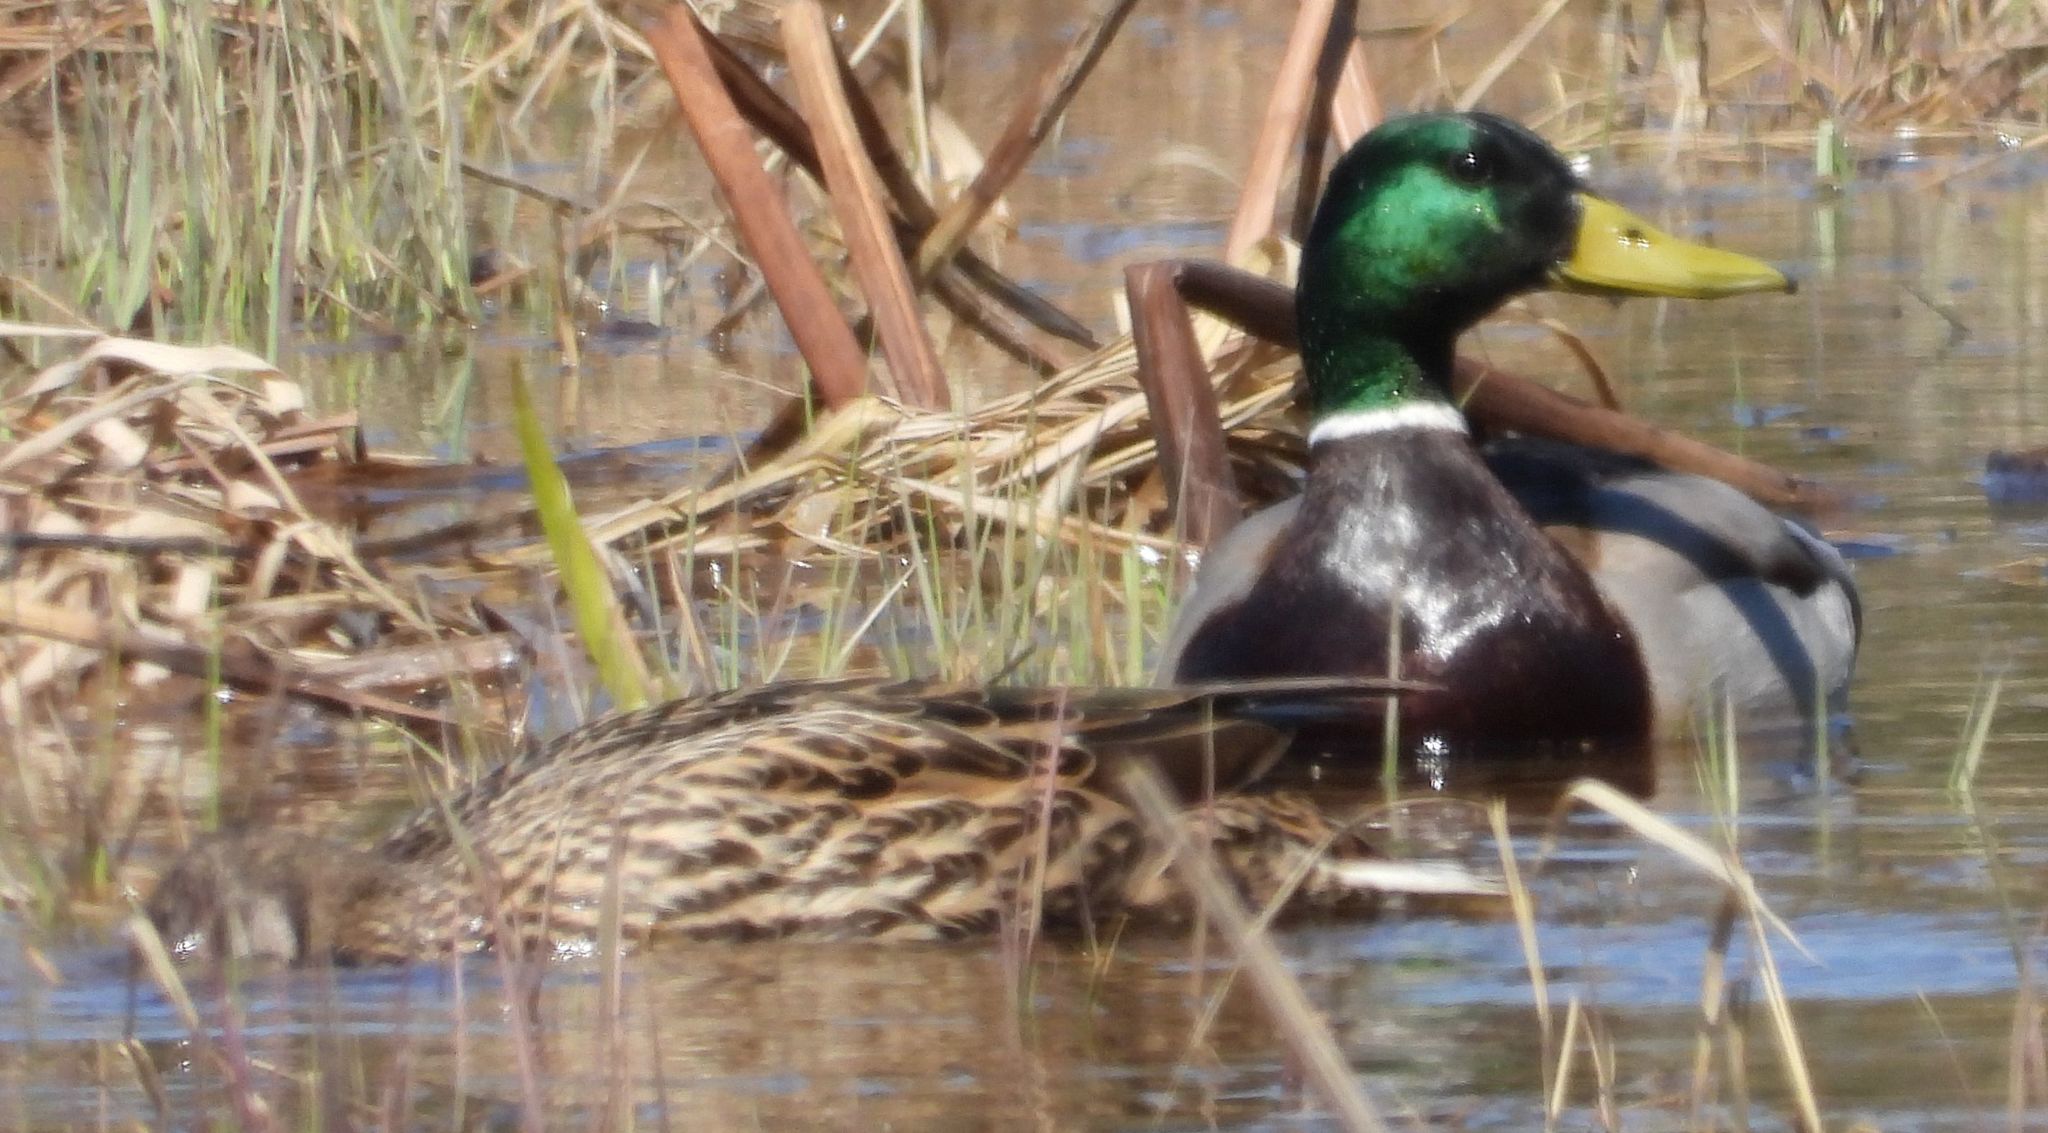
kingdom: Animalia
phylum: Chordata
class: Aves
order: Anseriformes
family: Anatidae
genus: Anas
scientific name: Anas platyrhynchos
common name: Mallard
